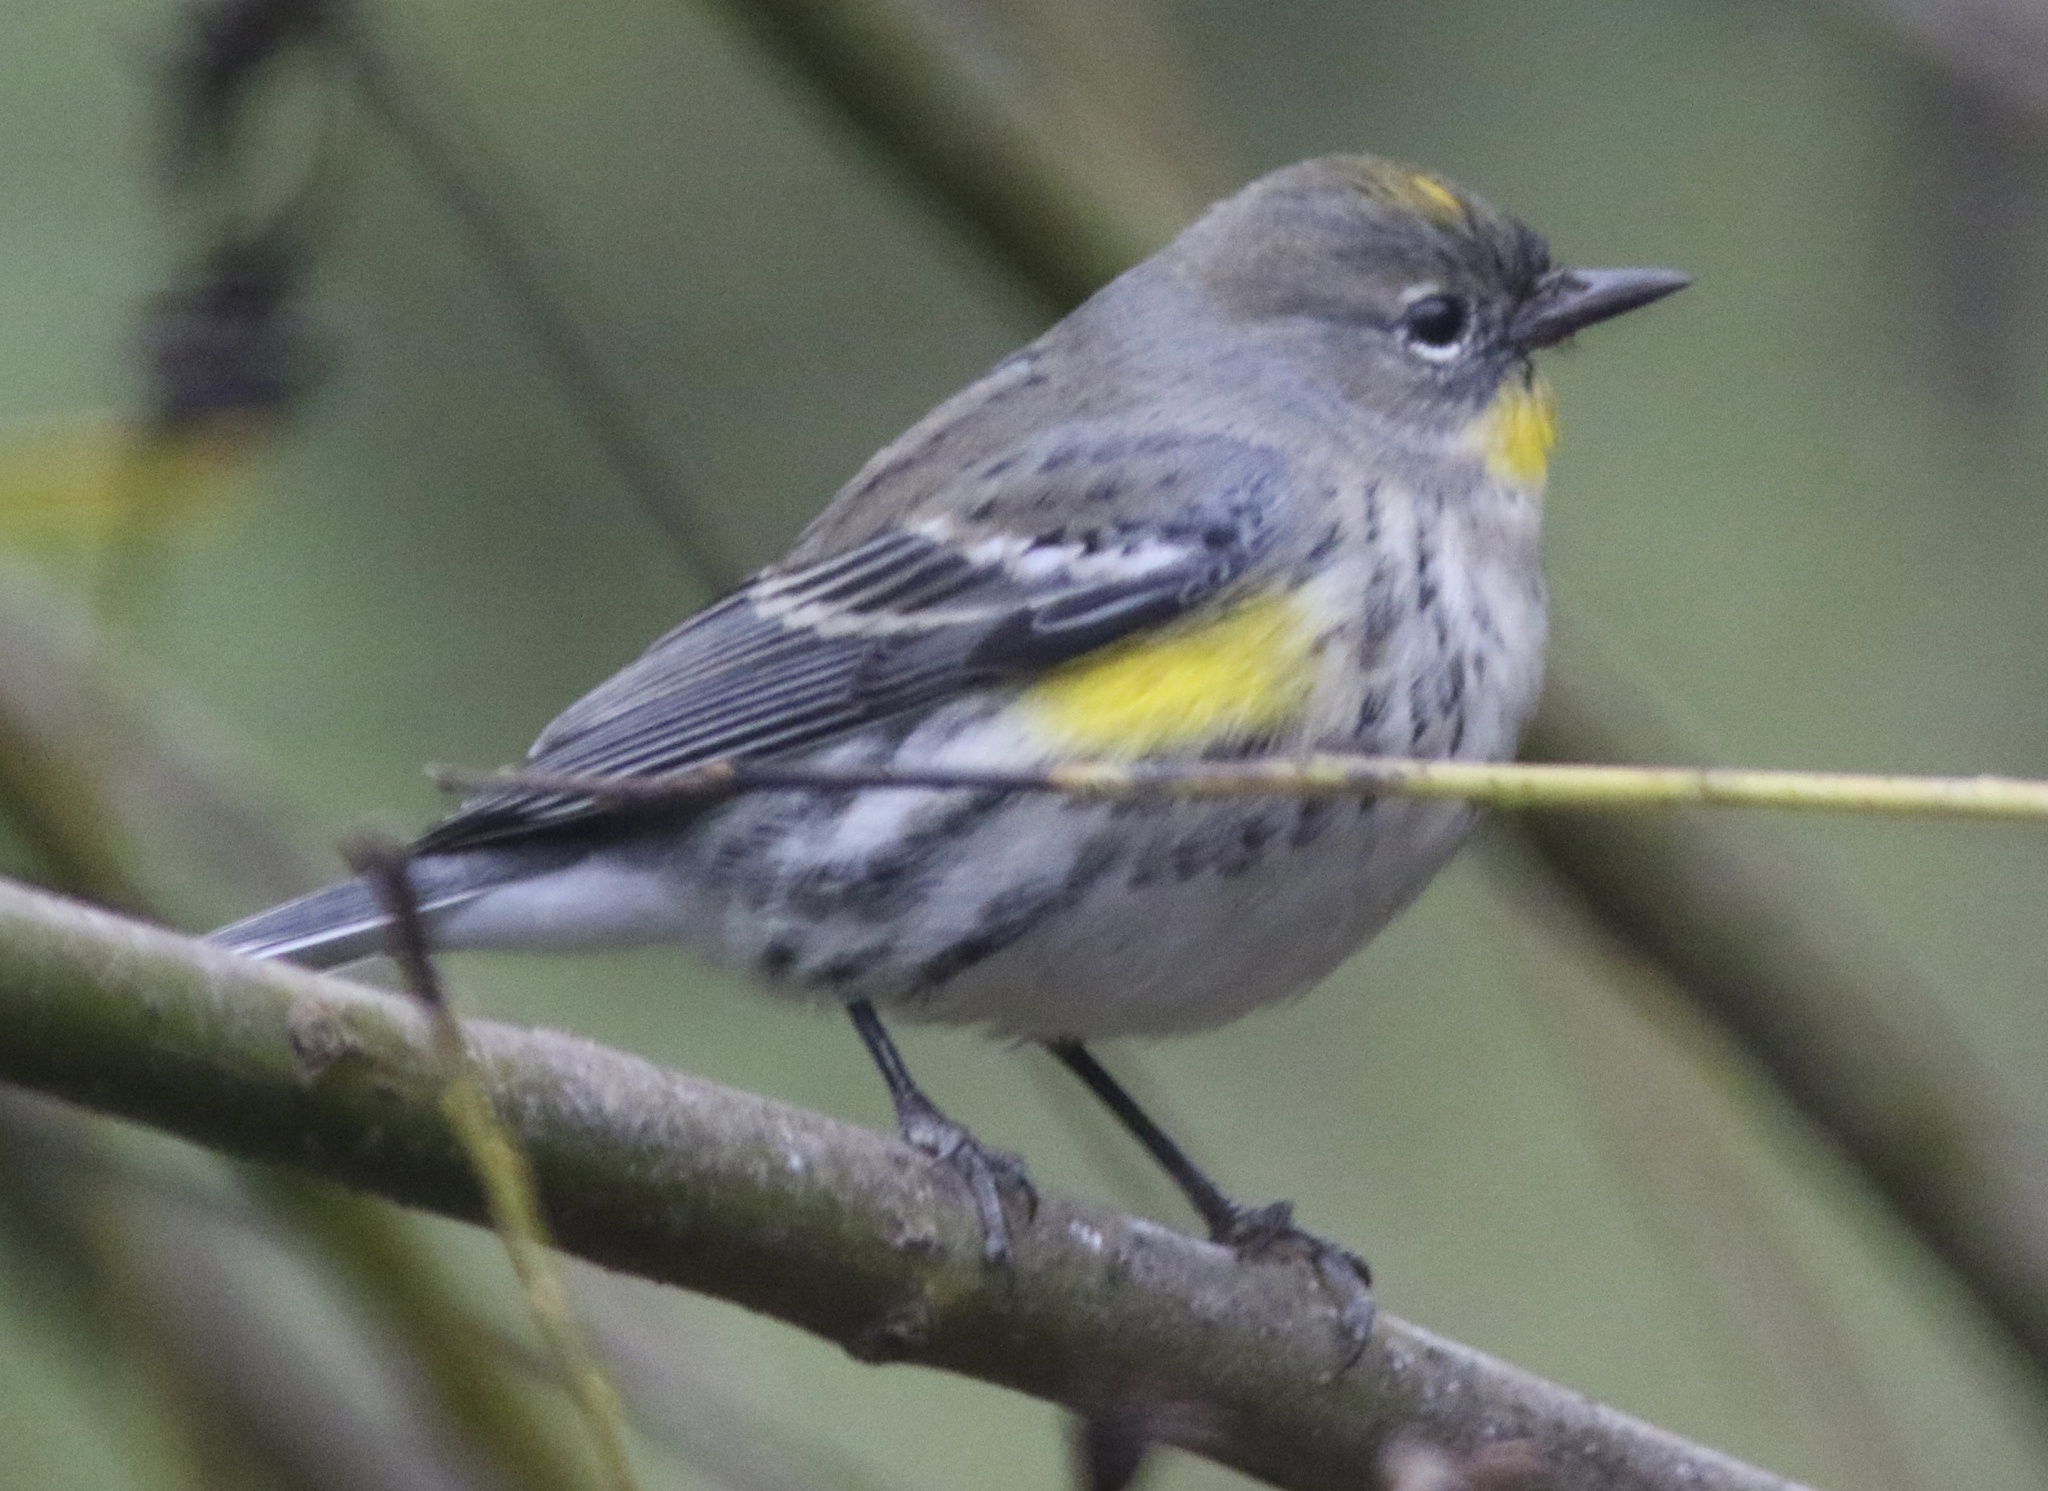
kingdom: Animalia
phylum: Chordata
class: Aves
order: Passeriformes
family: Parulidae
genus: Setophaga
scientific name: Setophaga coronata
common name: Myrtle warbler
